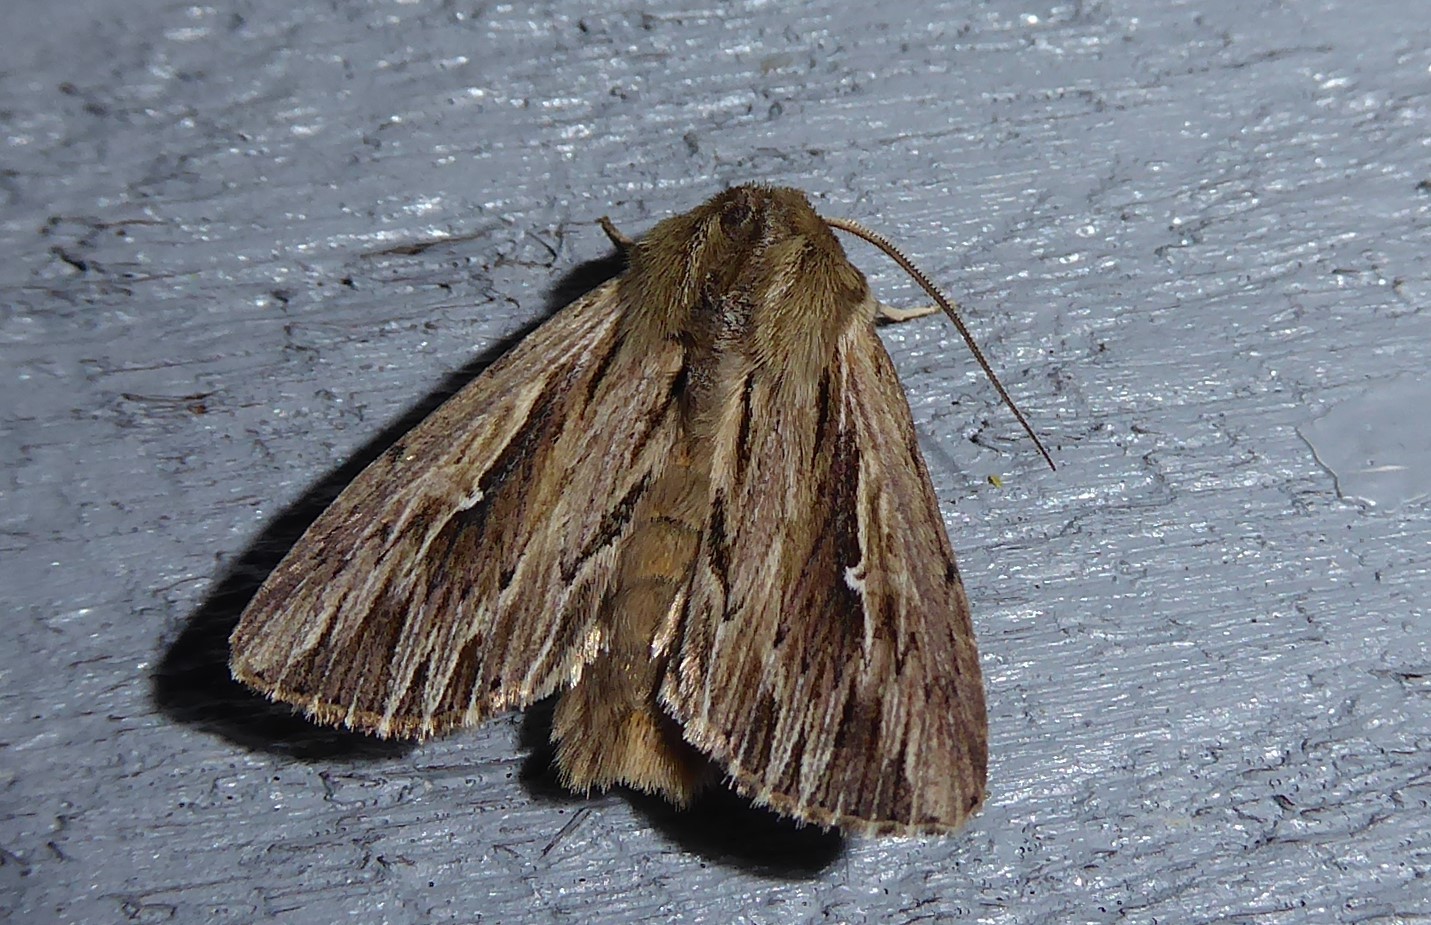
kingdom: Animalia
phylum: Arthropoda
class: Insecta
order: Lepidoptera
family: Noctuidae
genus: Persectania
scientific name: Persectania aversa
